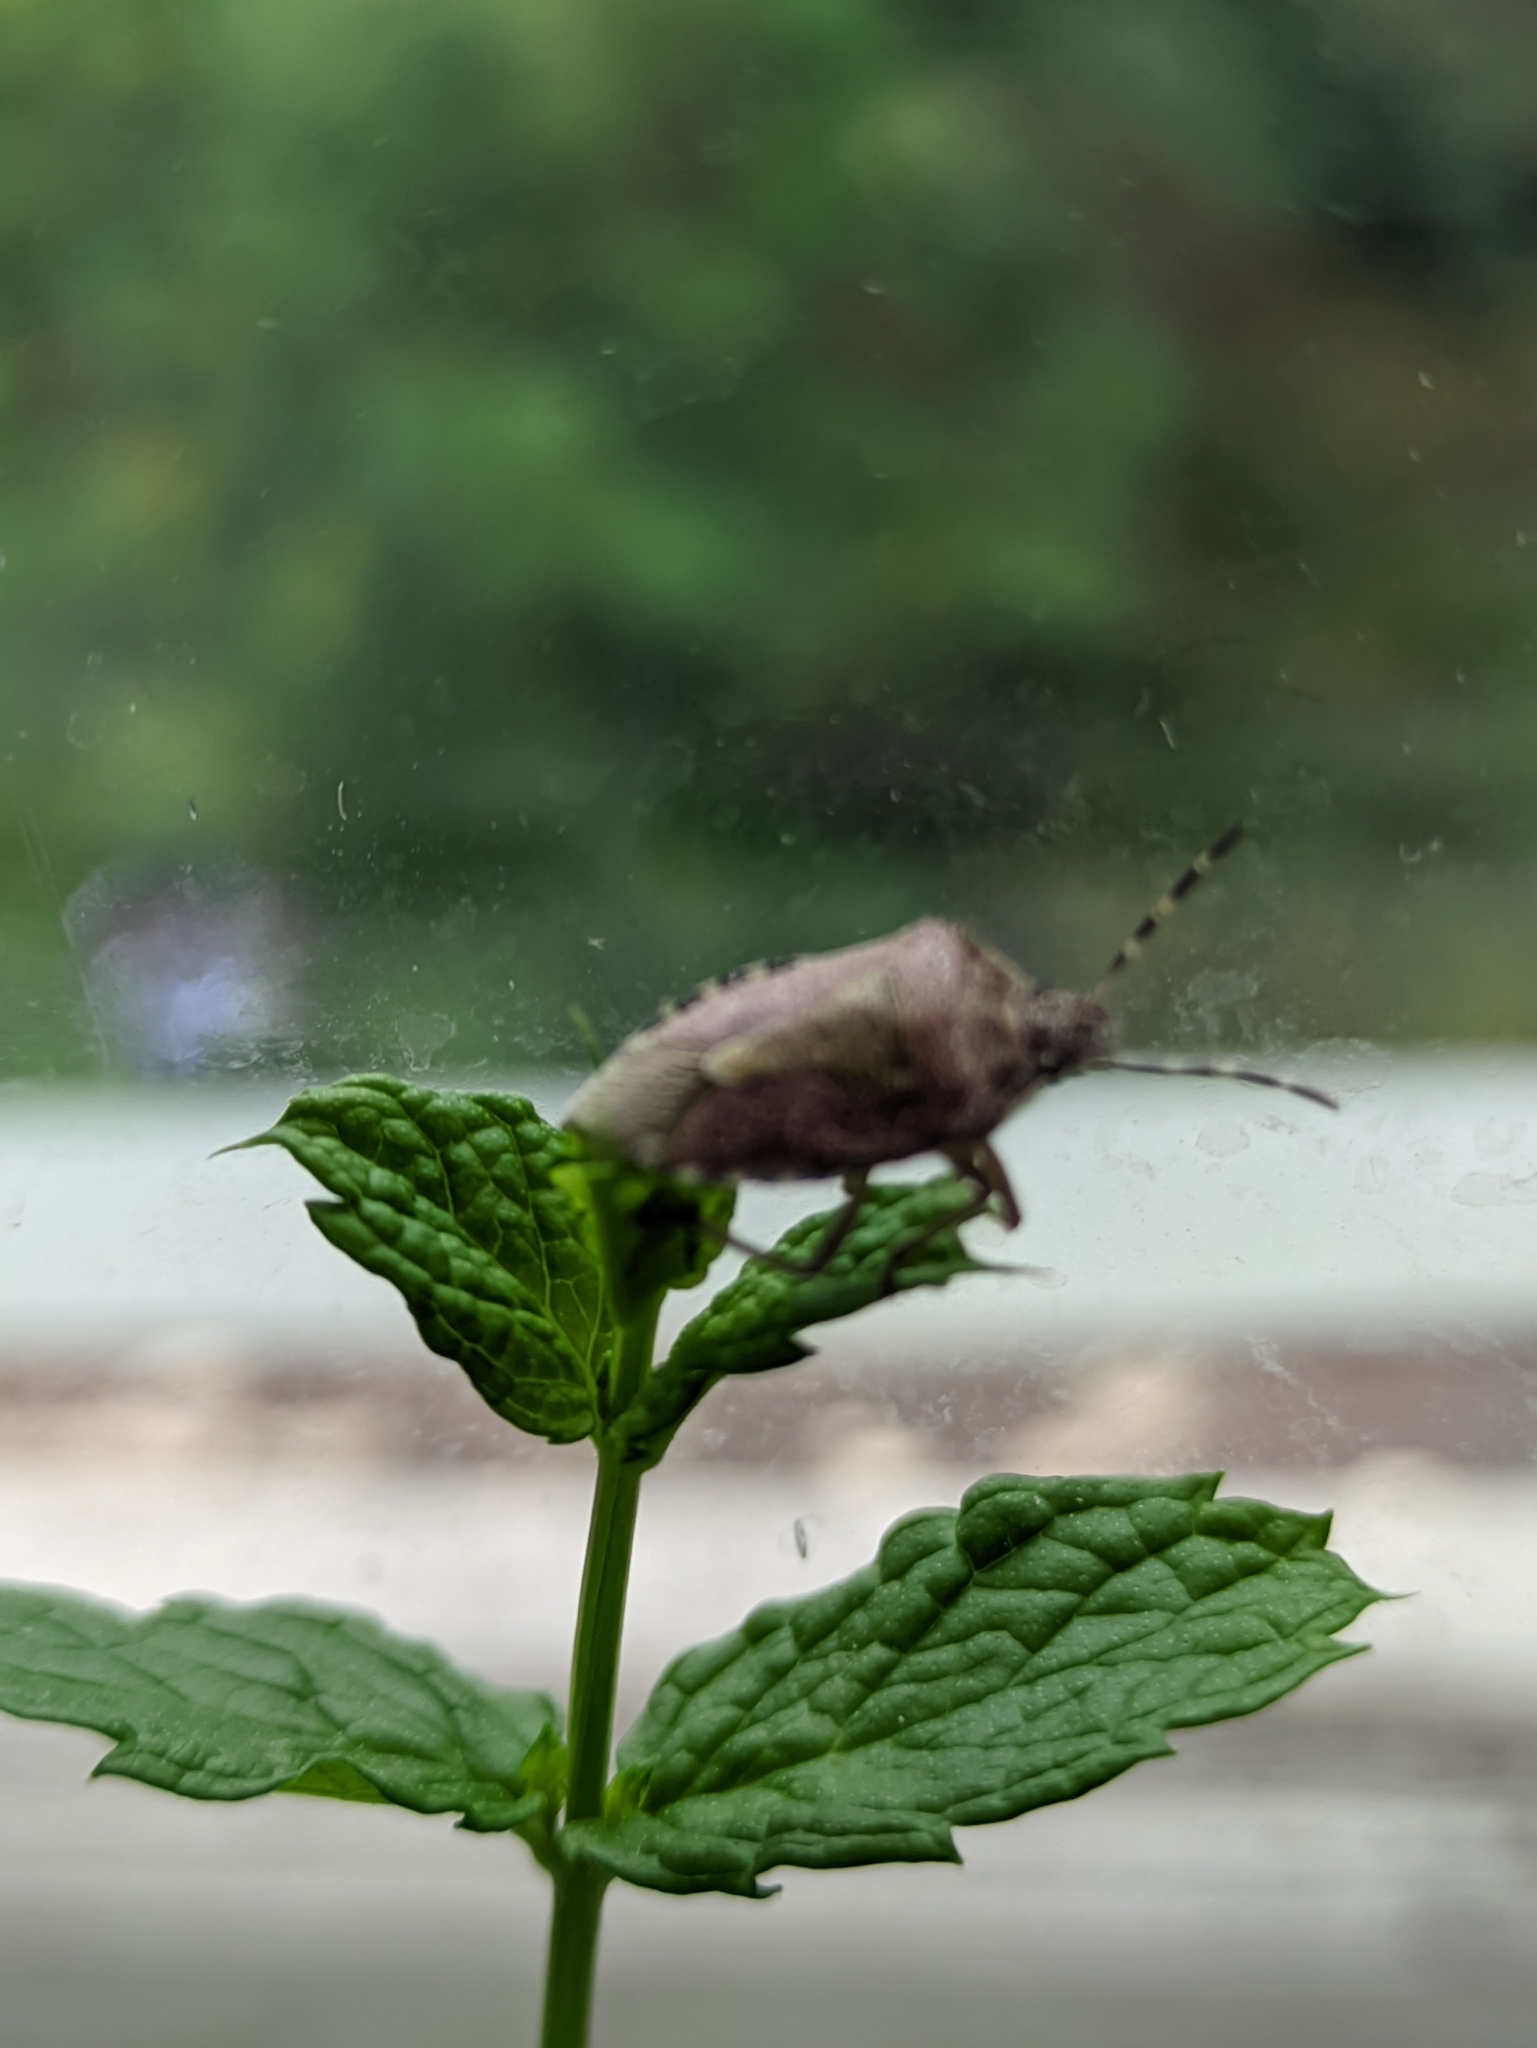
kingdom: Animalia
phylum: Arthropoda
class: Insecta
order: Hemiptera
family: Pentatomidae
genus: Dolycoris
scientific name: Dolycoris baccarum
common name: Sloe bug
